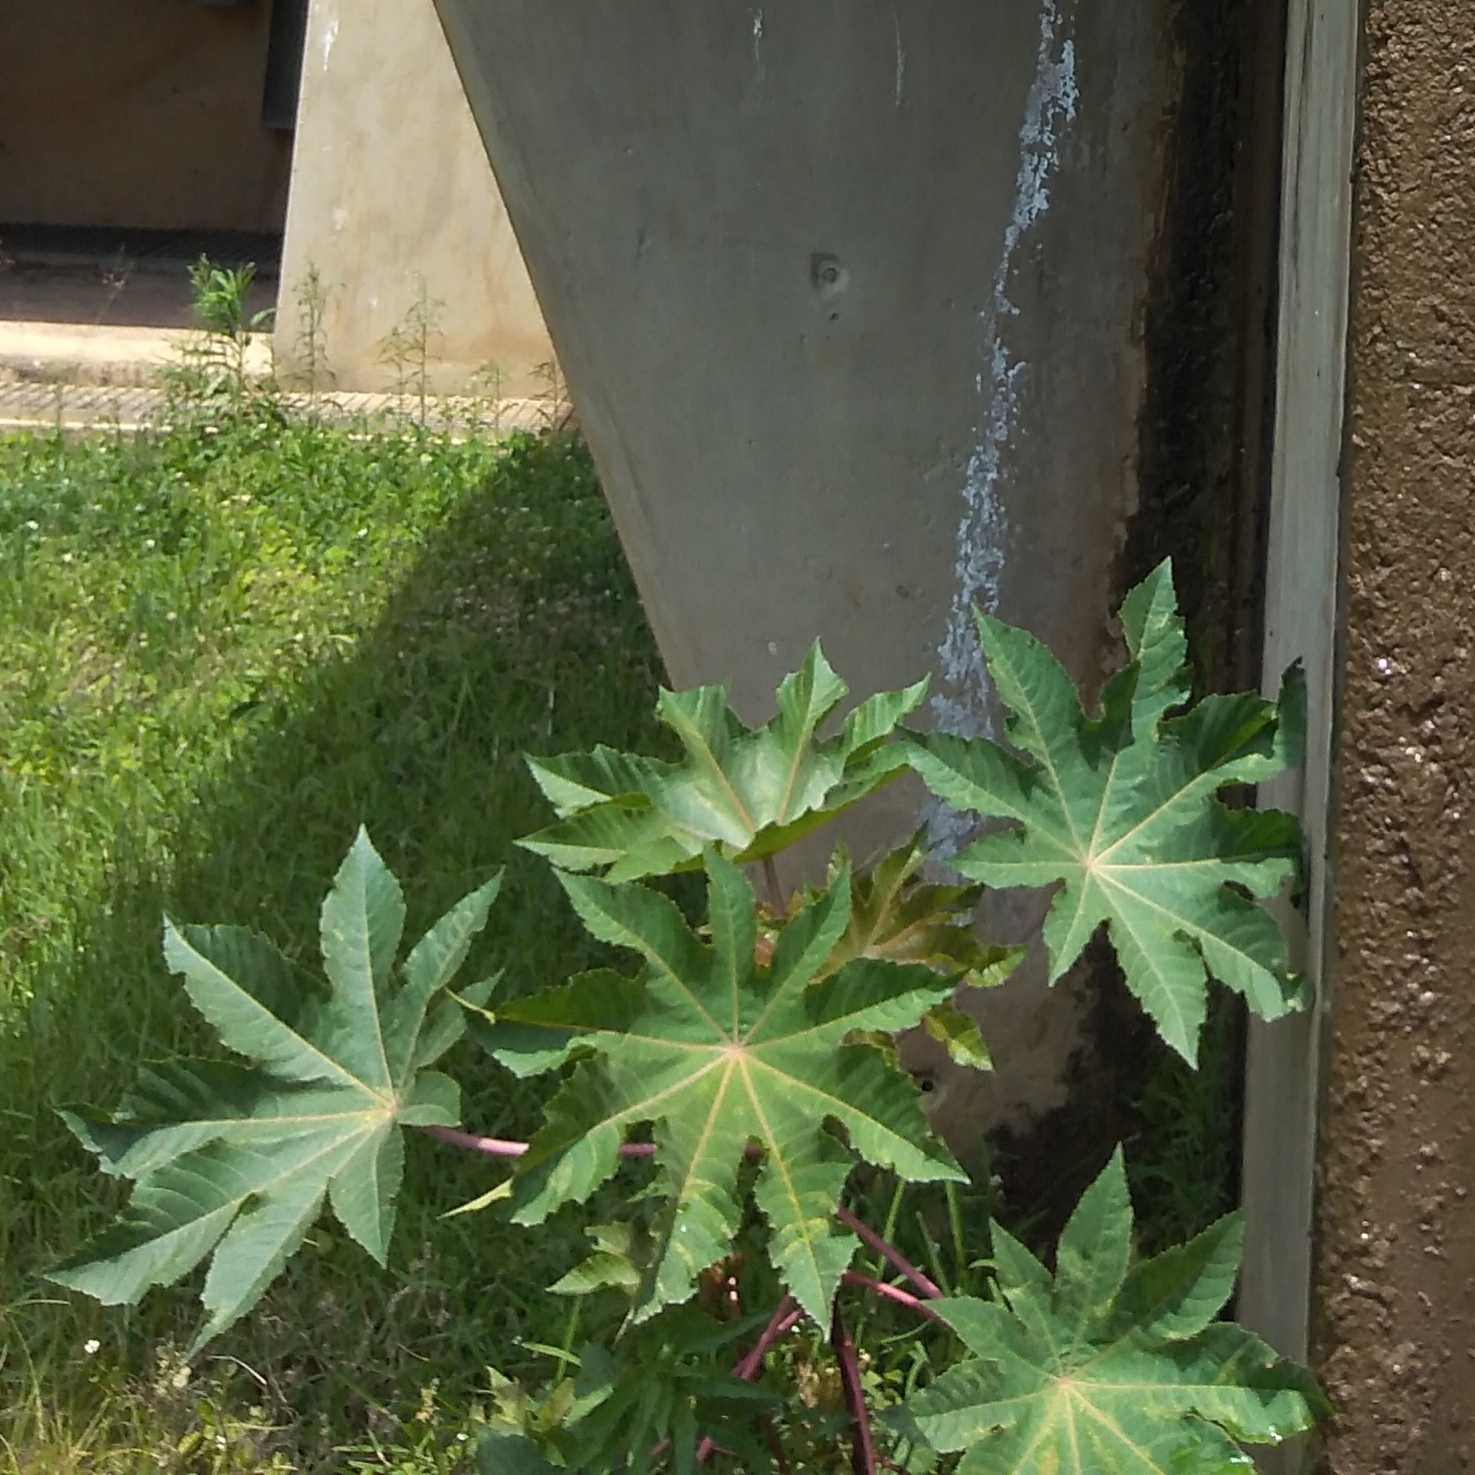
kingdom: Plantae
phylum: Tracheophyta
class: Magnoliopsida
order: Malpighiales
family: Euphorbiaceae
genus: Ricinus
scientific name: Ricinus communis
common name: Castor-oil-plant
